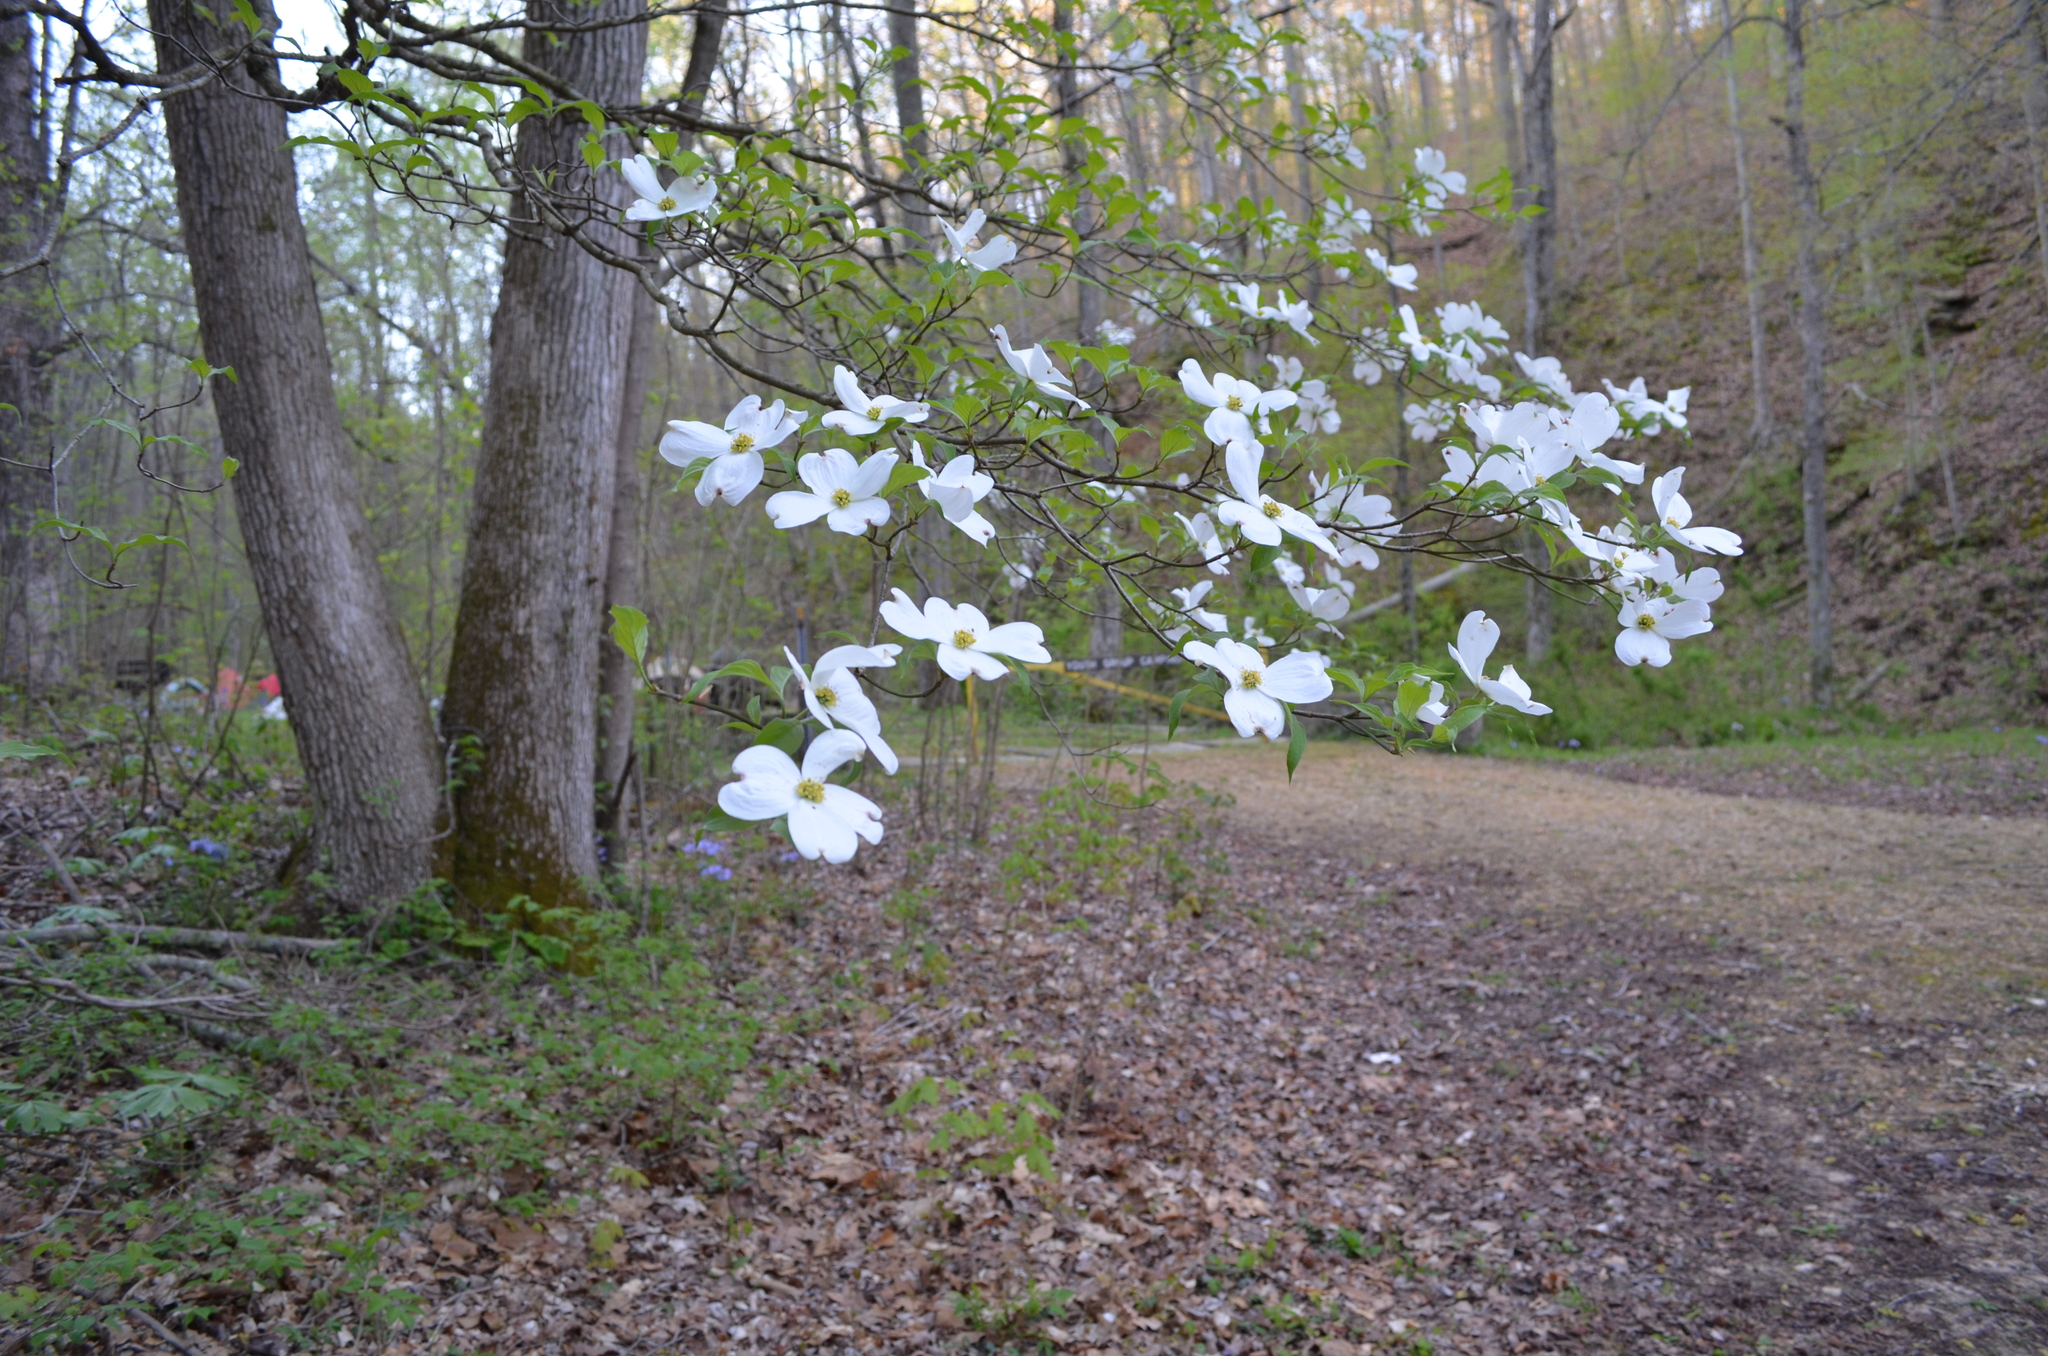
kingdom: Plantae
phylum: Tracheophyta
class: Magnoliopsida
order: Cornales
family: Cornaceae
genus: Cornus
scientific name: Cornus florida
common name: Flowering dogwood
